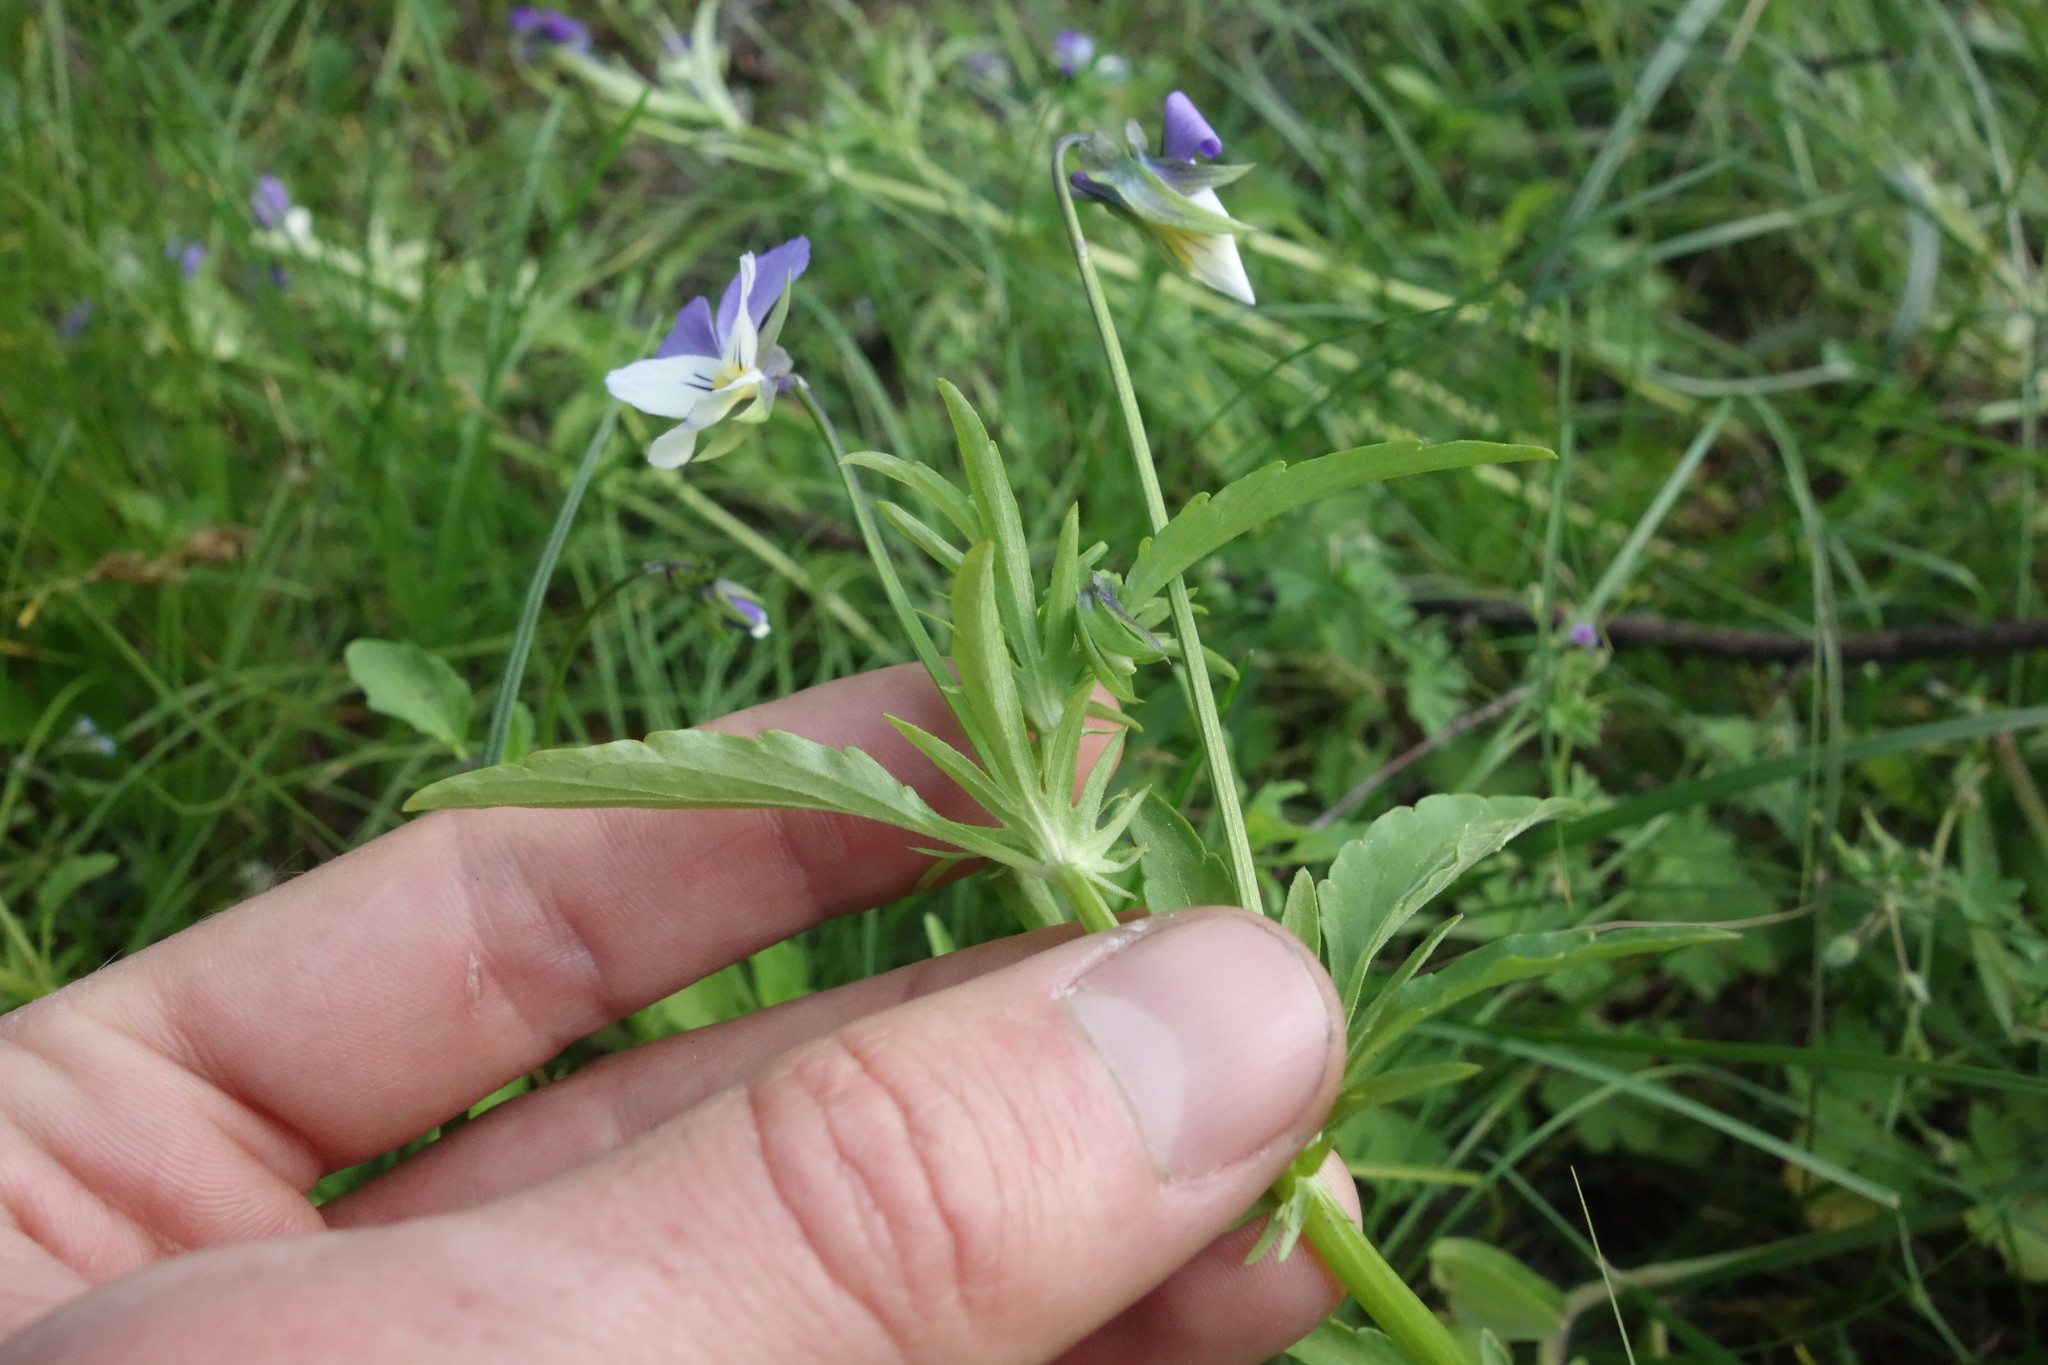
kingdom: Plantae
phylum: Tracheophyta
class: Magnoliopsida
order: Malpighiales
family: Violaceae
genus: Viola
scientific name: Viola tricolor
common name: Pansy
